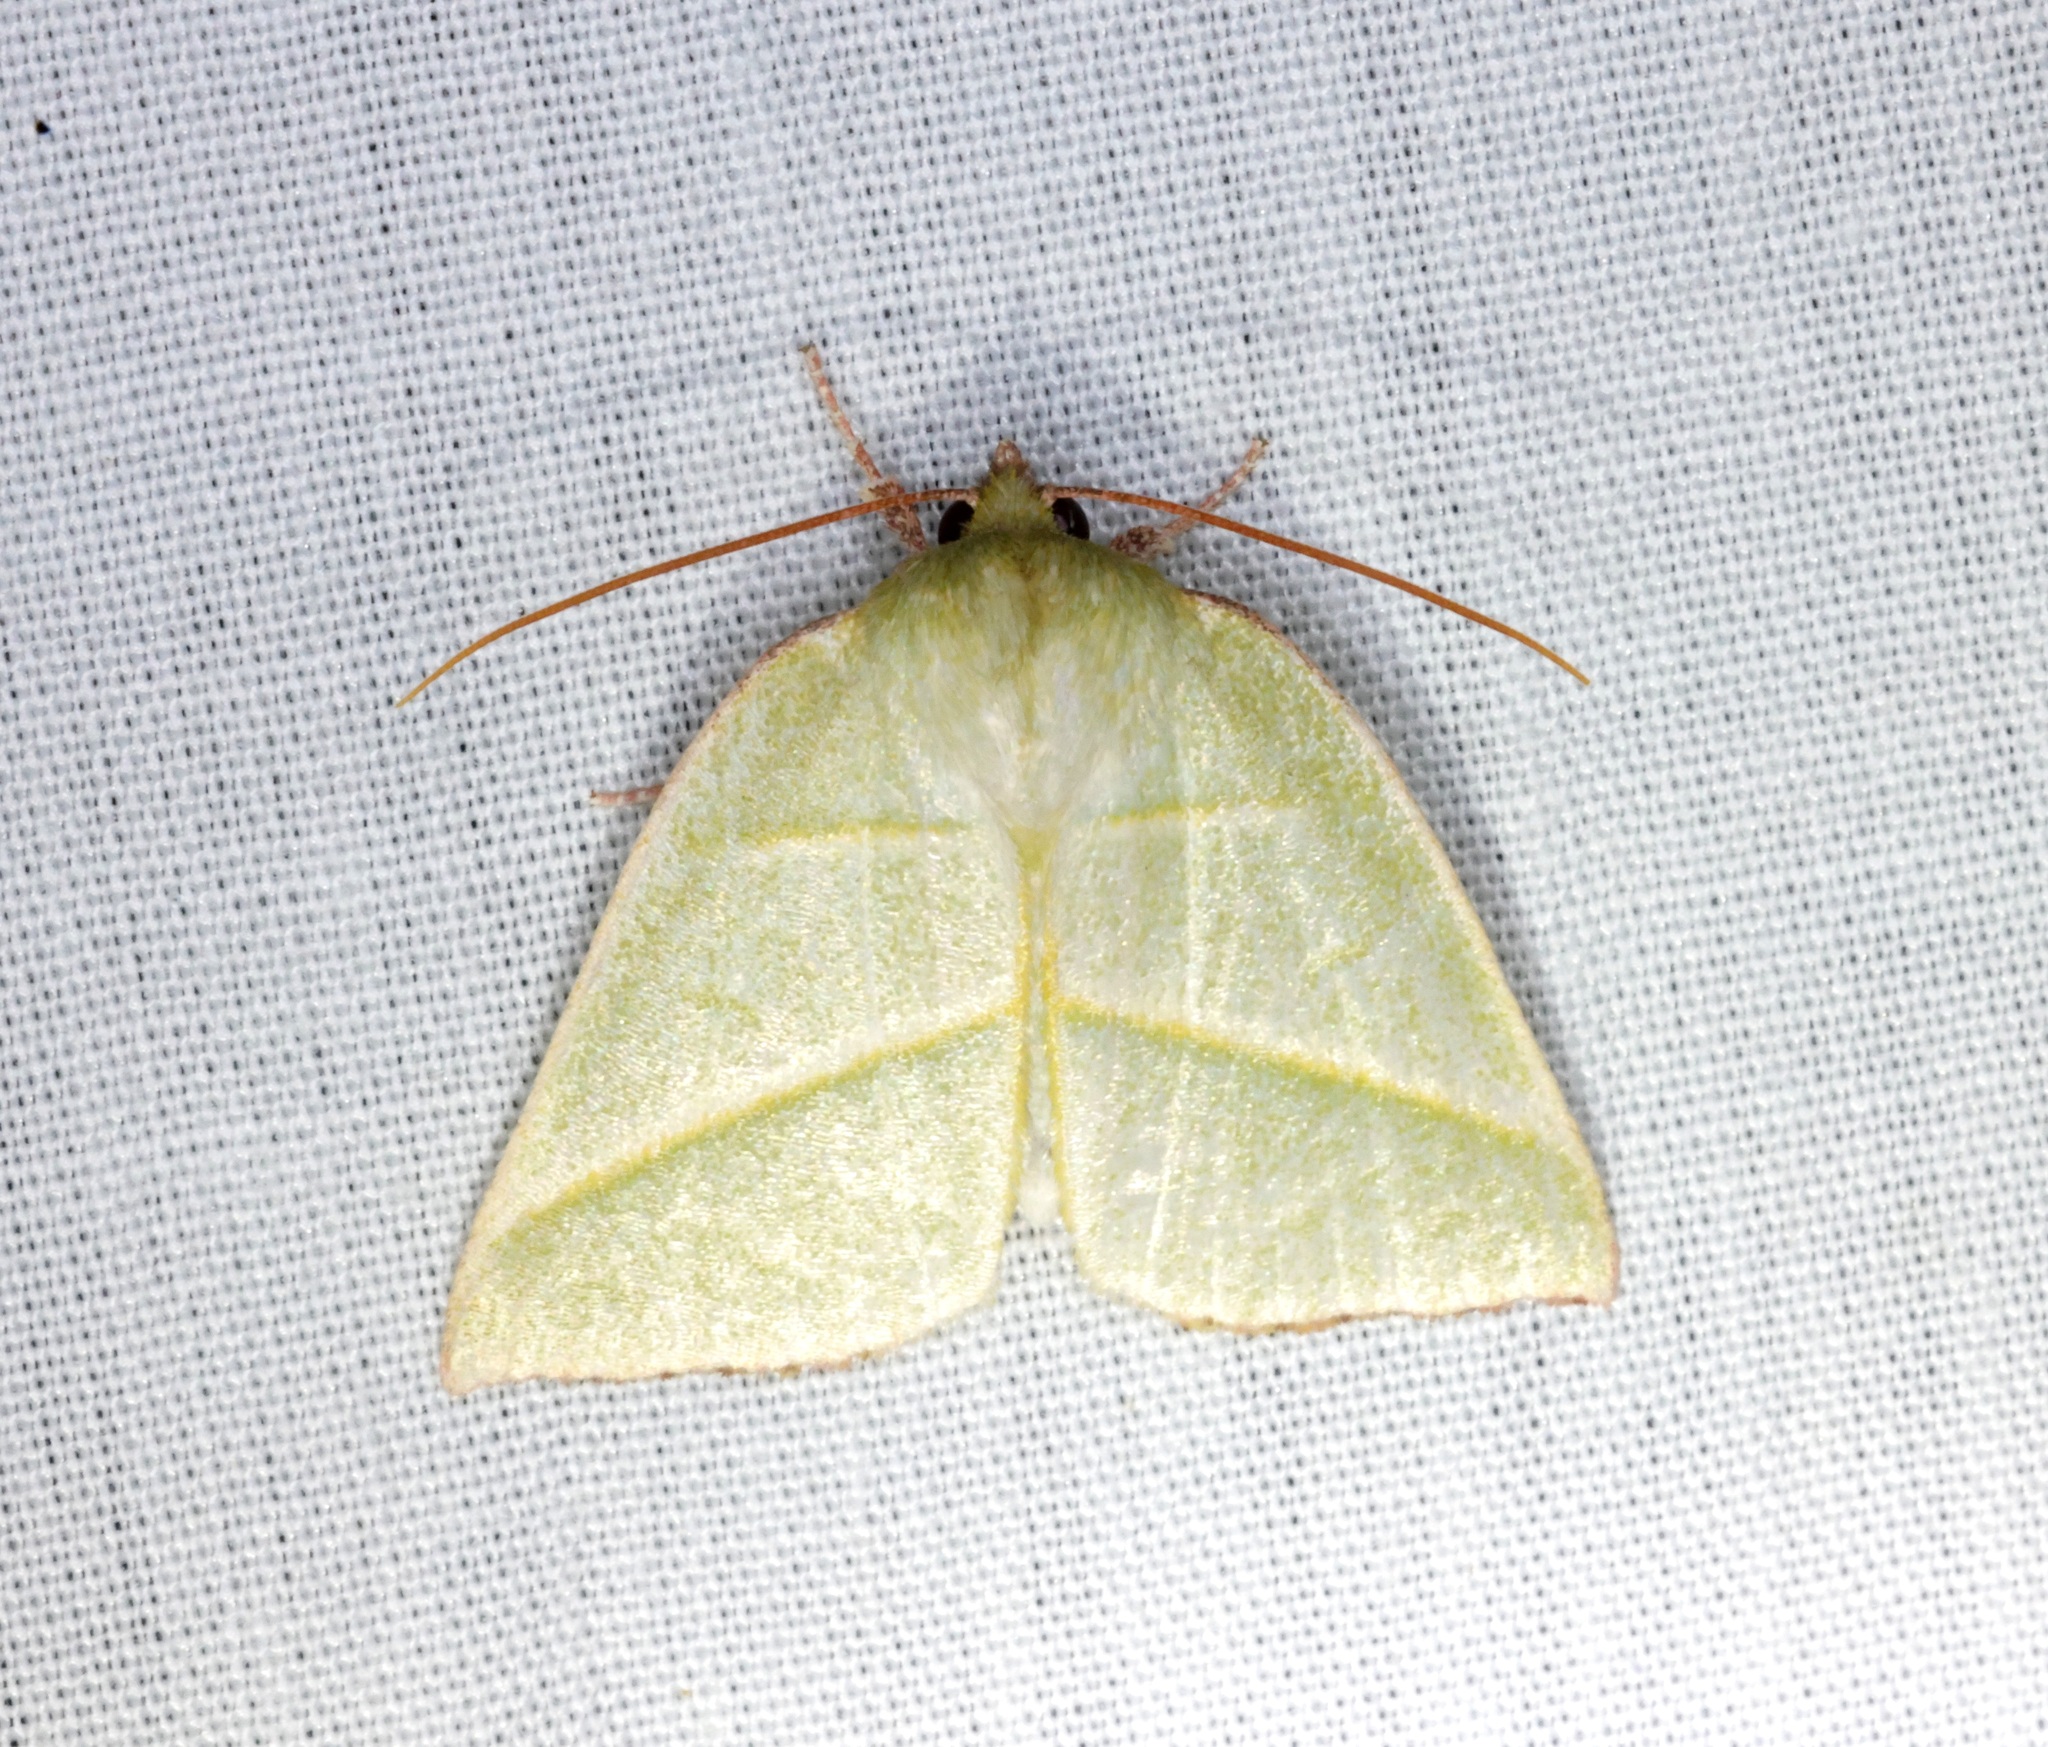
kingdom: Animalia
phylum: Arthropoda
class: Insecta
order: Lepidoptera
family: Nolidae
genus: Hylophilodes
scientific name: Hylophilodes tsukusensis
